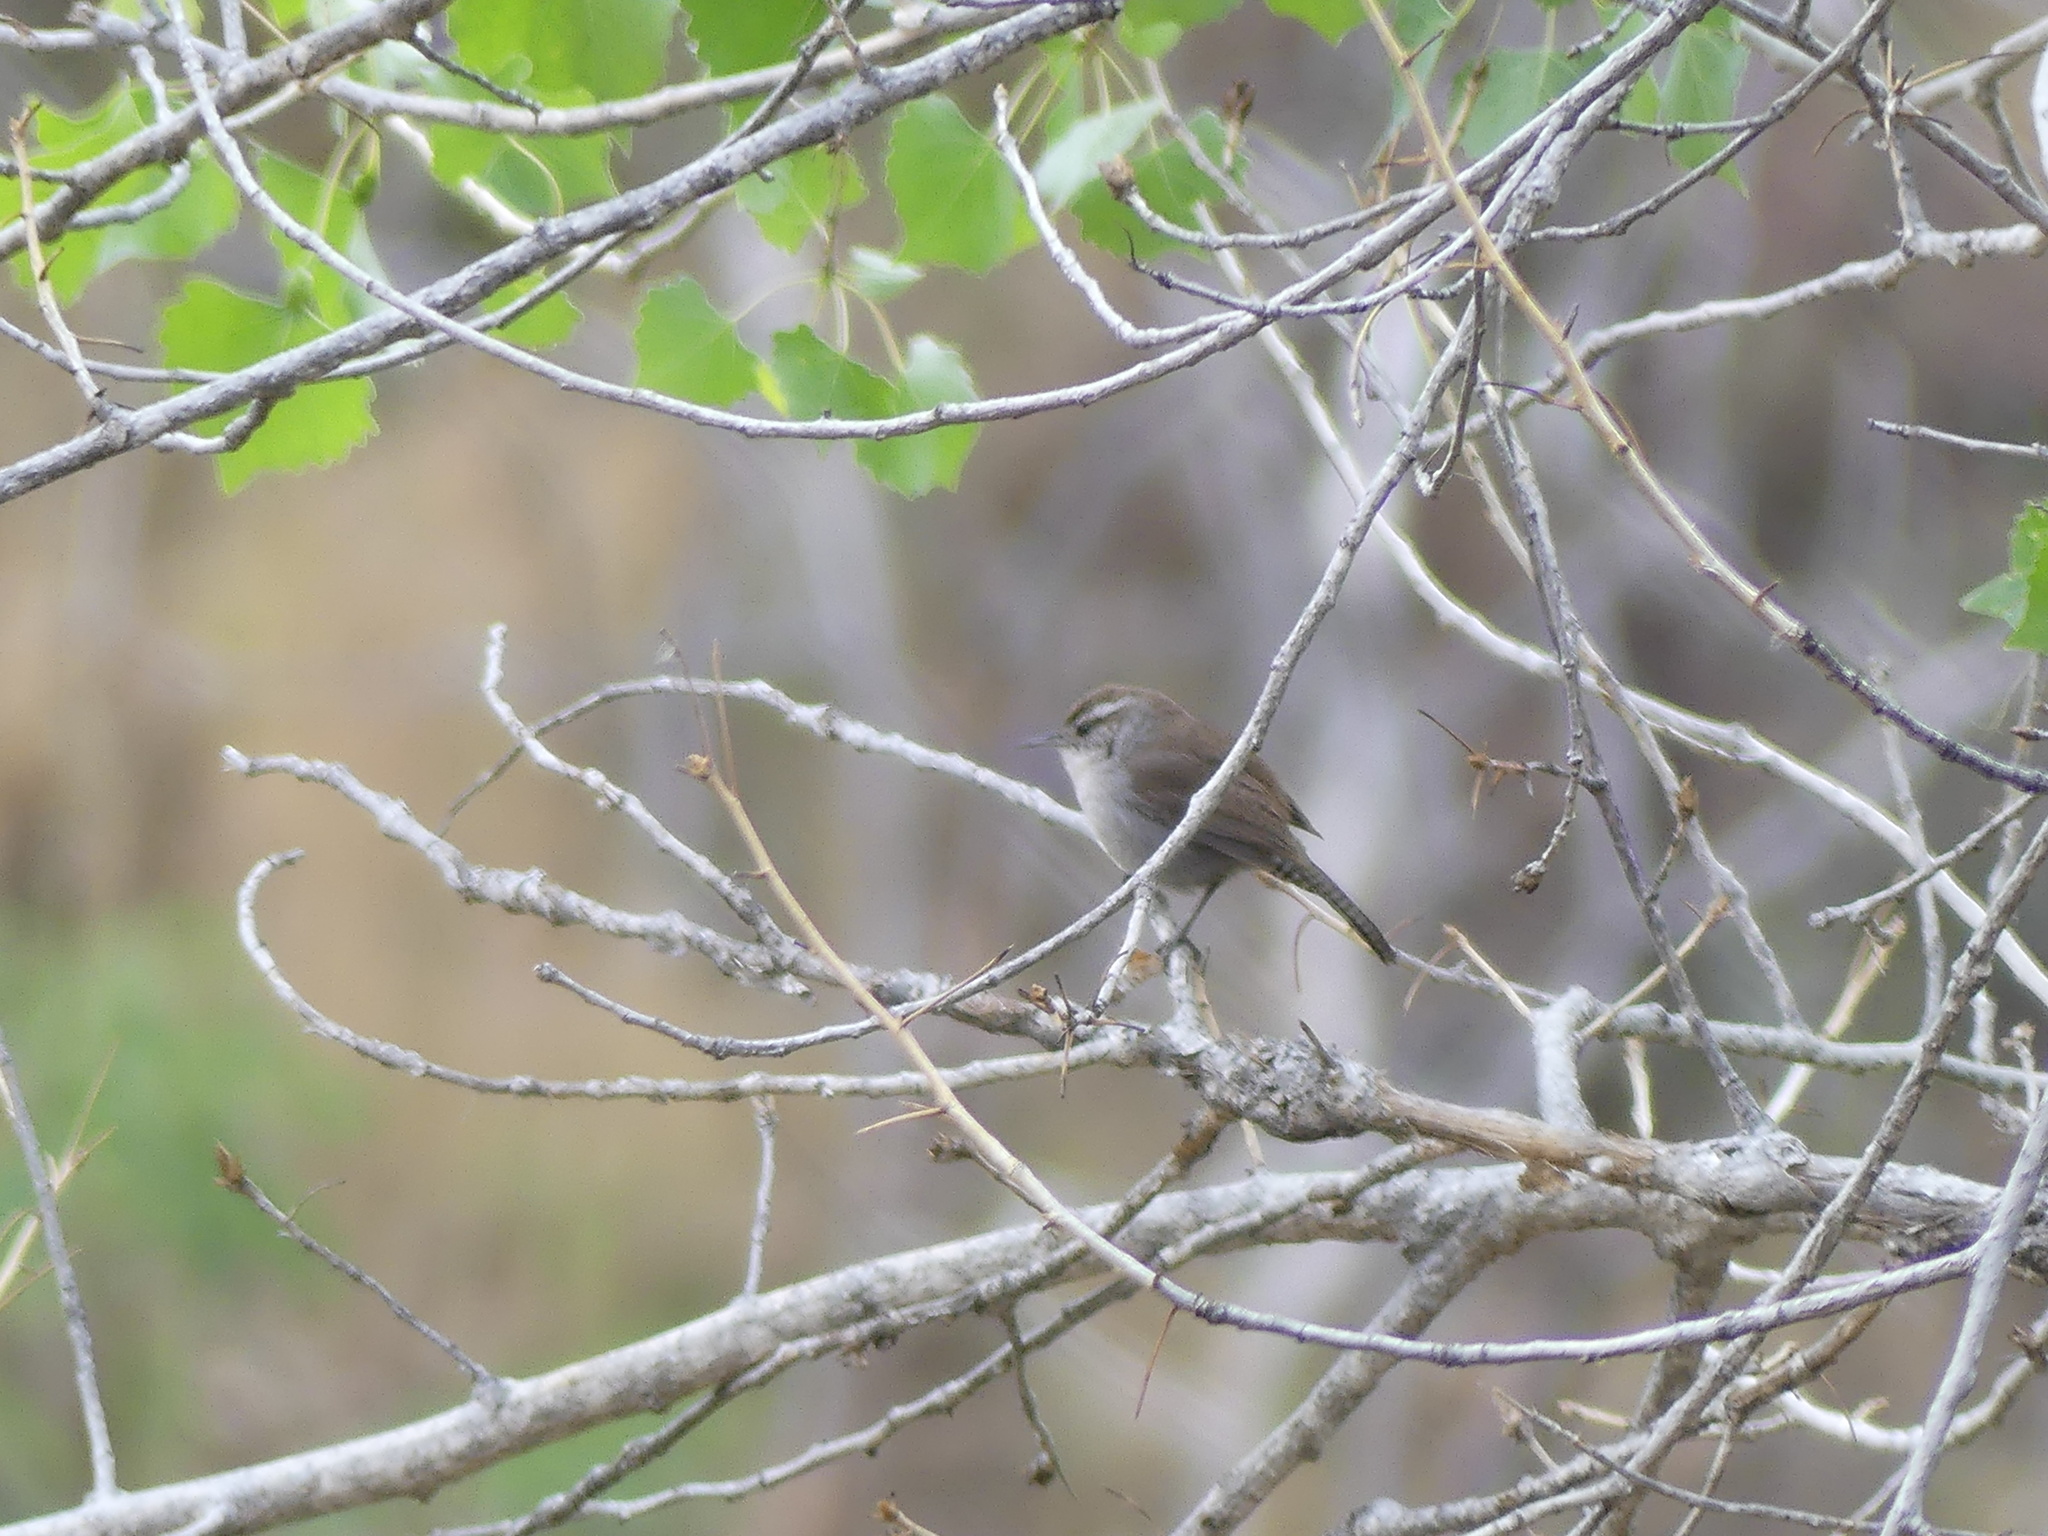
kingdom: Animalia
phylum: Chordata
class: Aves
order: Passeriformes
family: Troglodytidae
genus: Thryomanes
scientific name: Thryomanes bewickii
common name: Bewick's wren
